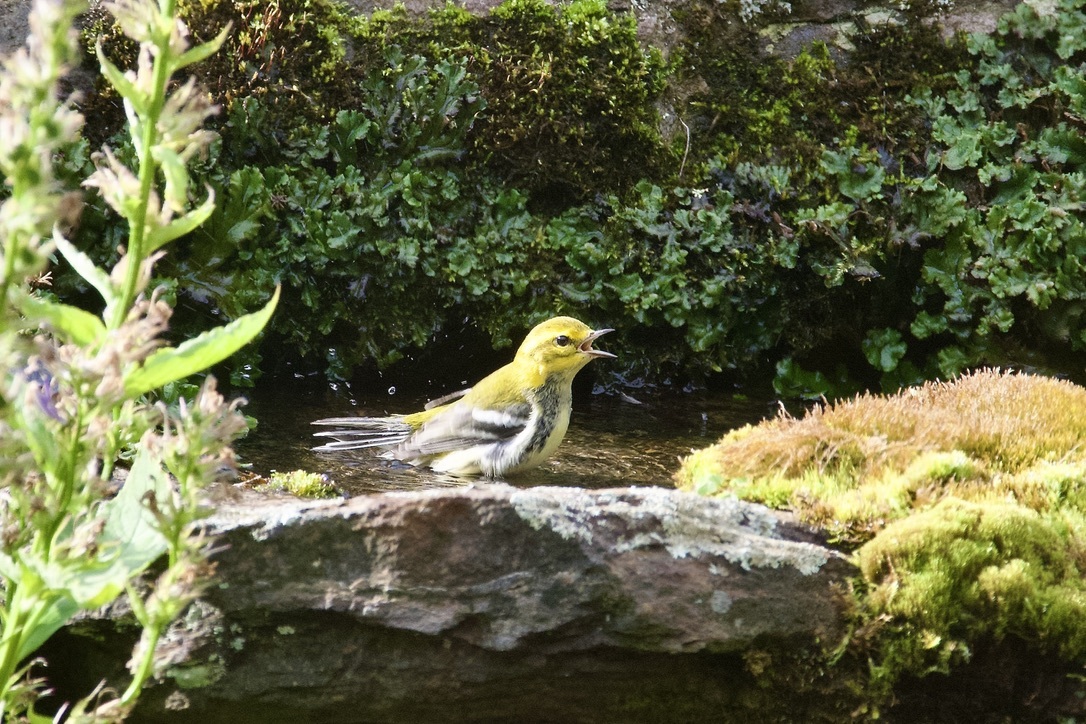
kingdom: Animalia
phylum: Chordata
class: Aves
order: Passeriformes
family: Parulidae
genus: Setophaga
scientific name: Setophaga virens
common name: Black-throated green warbler
